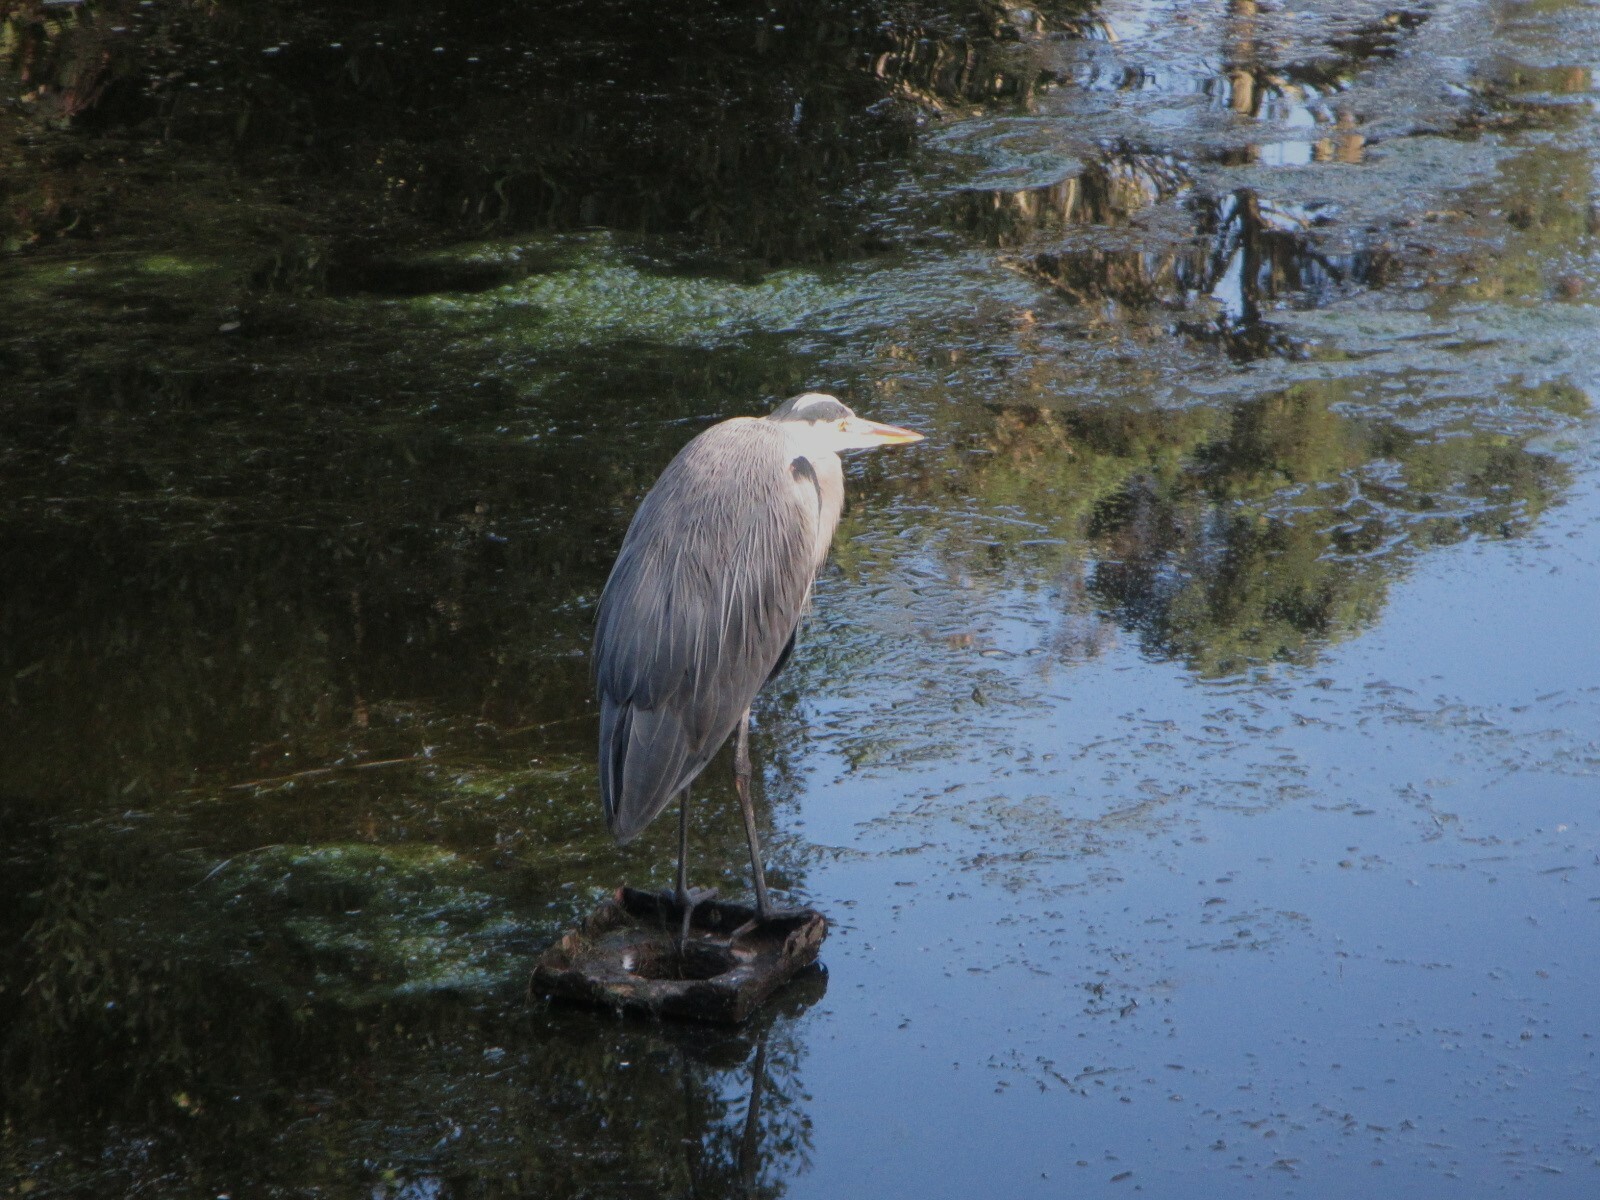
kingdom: Animalia
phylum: Chordata
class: Aves
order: Pelecaniformes
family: Ardeidae
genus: Ardea
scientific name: Ardea herodias
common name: Great blue heron
